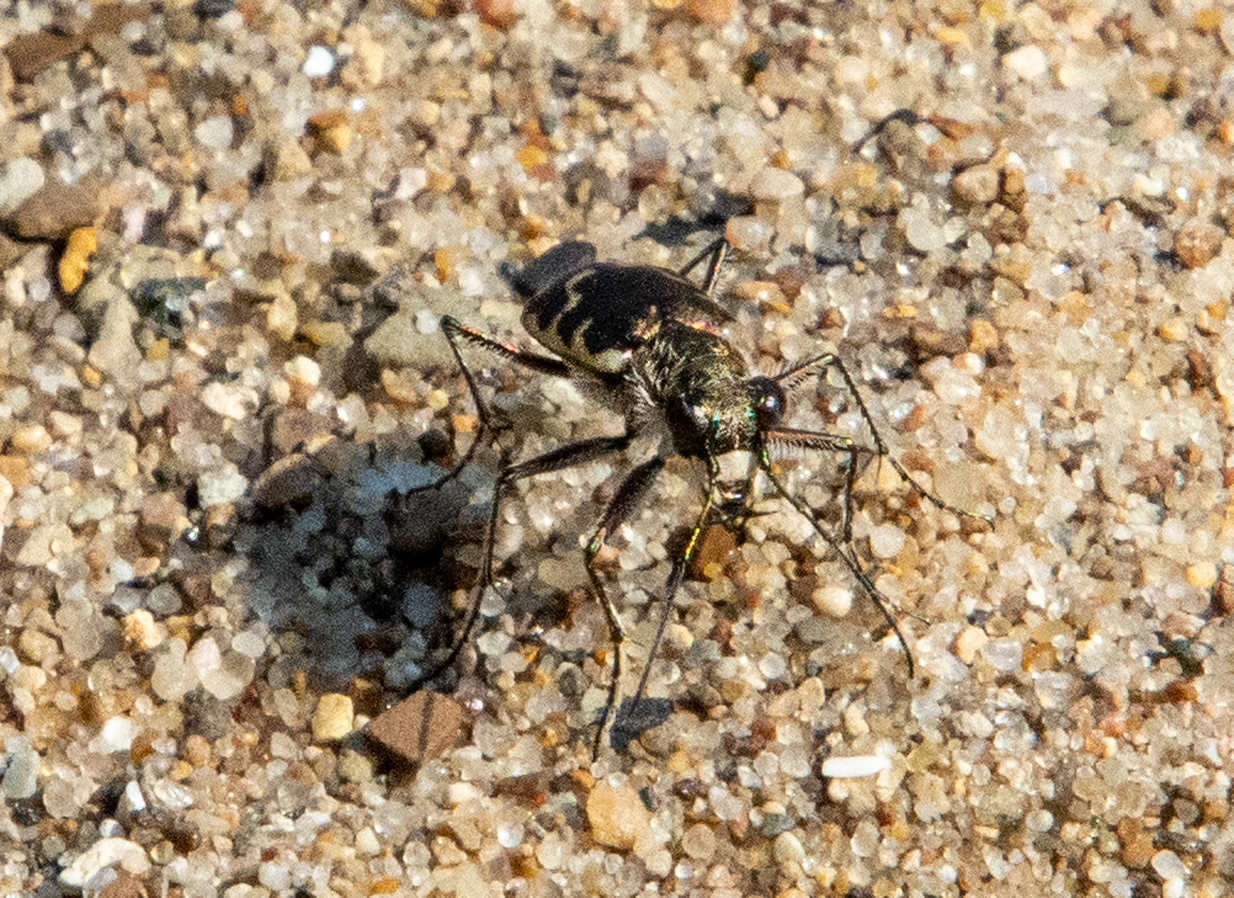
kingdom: Animalia
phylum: Arthropoda
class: Insecta
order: Coleoptera
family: Carabidae
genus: Cicindela
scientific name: Cicindela repanda
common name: Bronzed tiger beetle
